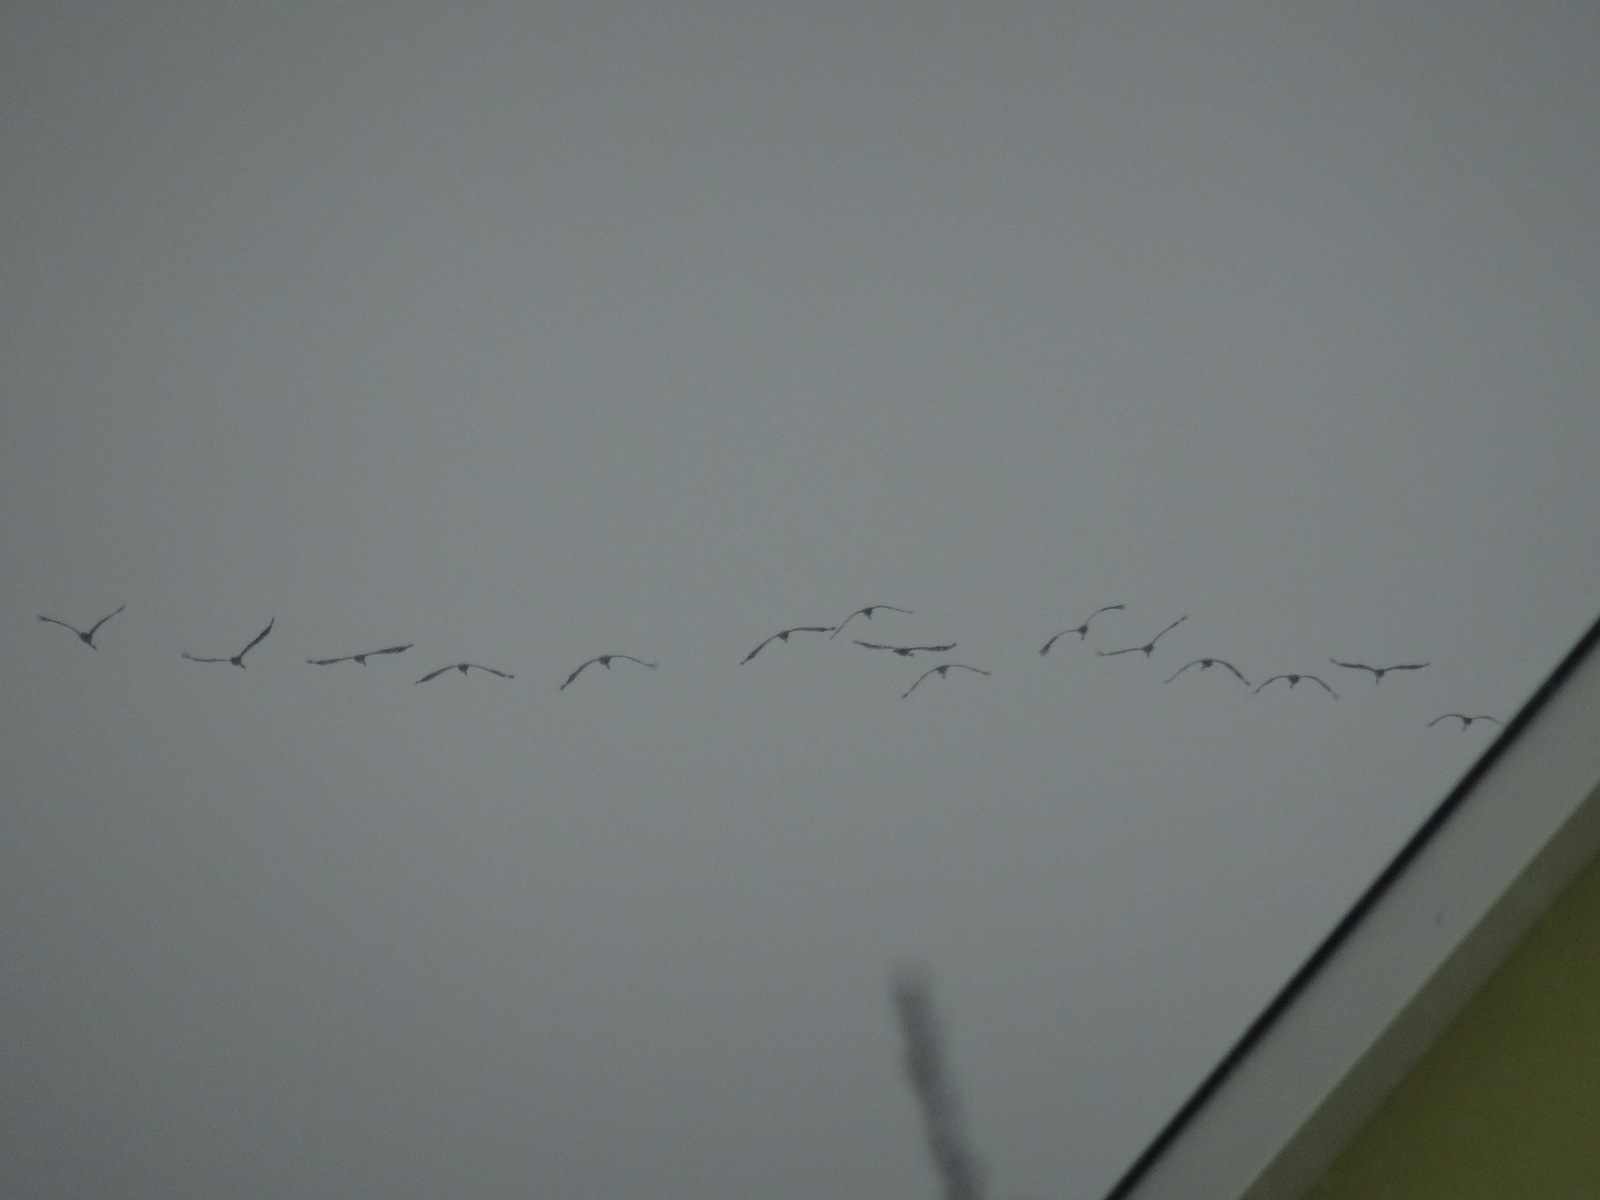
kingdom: Animalia
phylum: Chordata
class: Aves
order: Gruiformes
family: Gruidae
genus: Grus
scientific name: Grus grus
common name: Common crane
